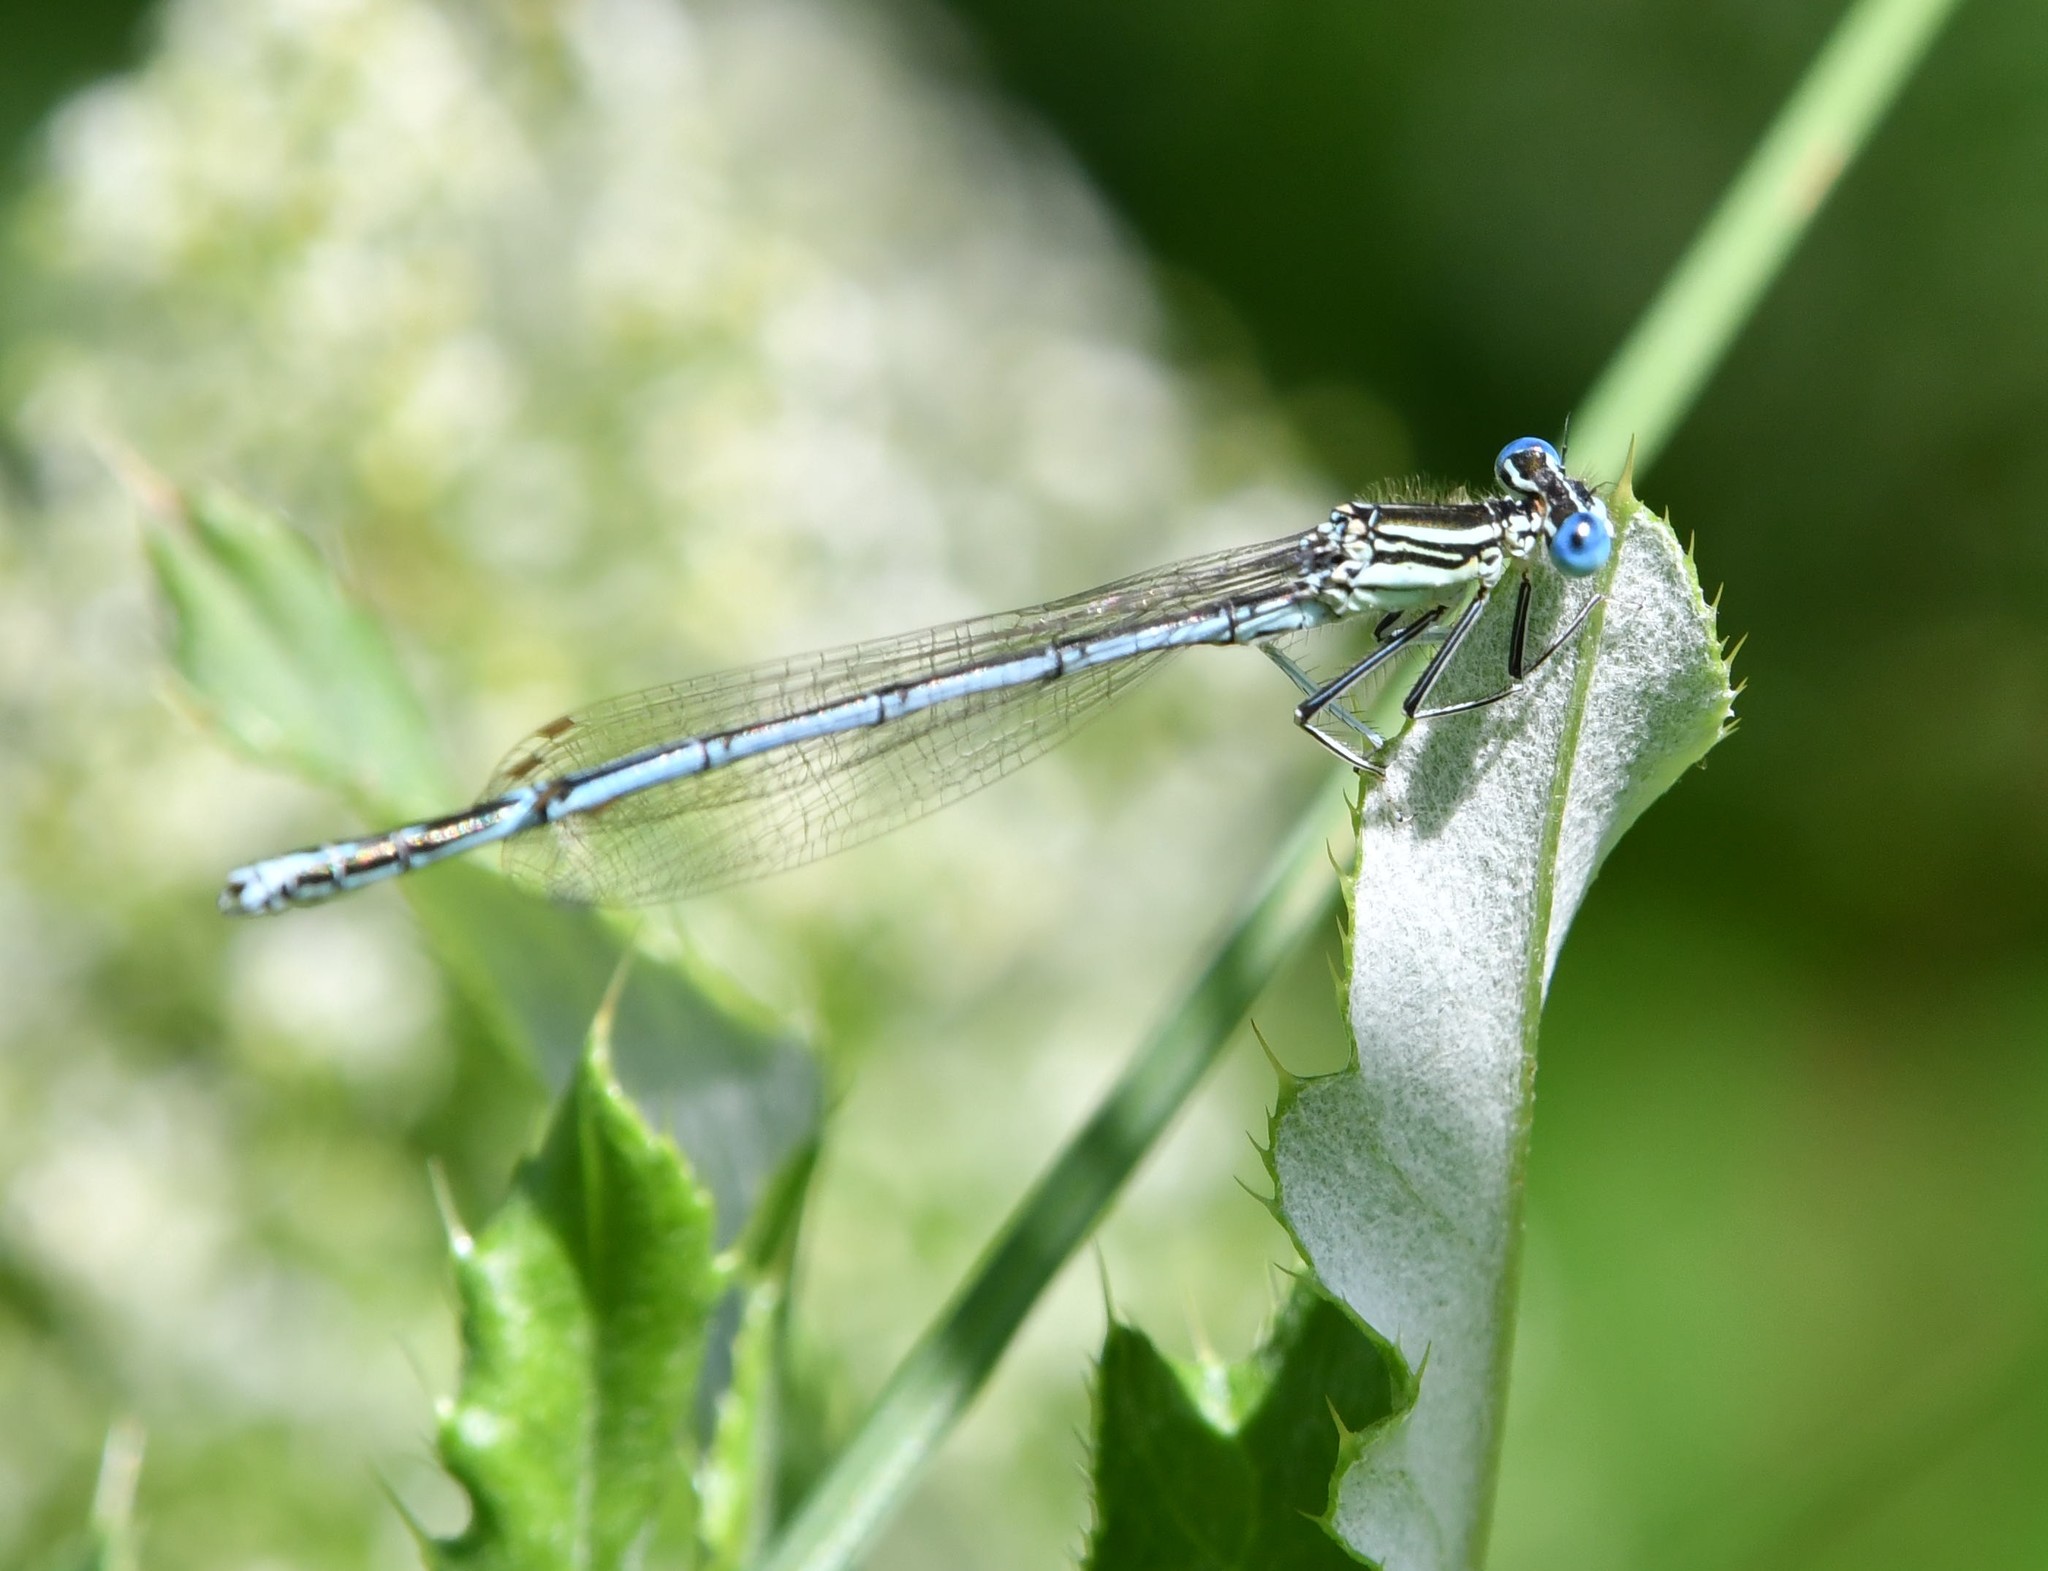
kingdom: Animalia
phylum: Arthropoda
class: Insecta
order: Odonata
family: Platycnemididae
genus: Platycnemis
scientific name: Platycnemis pennipes
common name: White-legged damselfly
